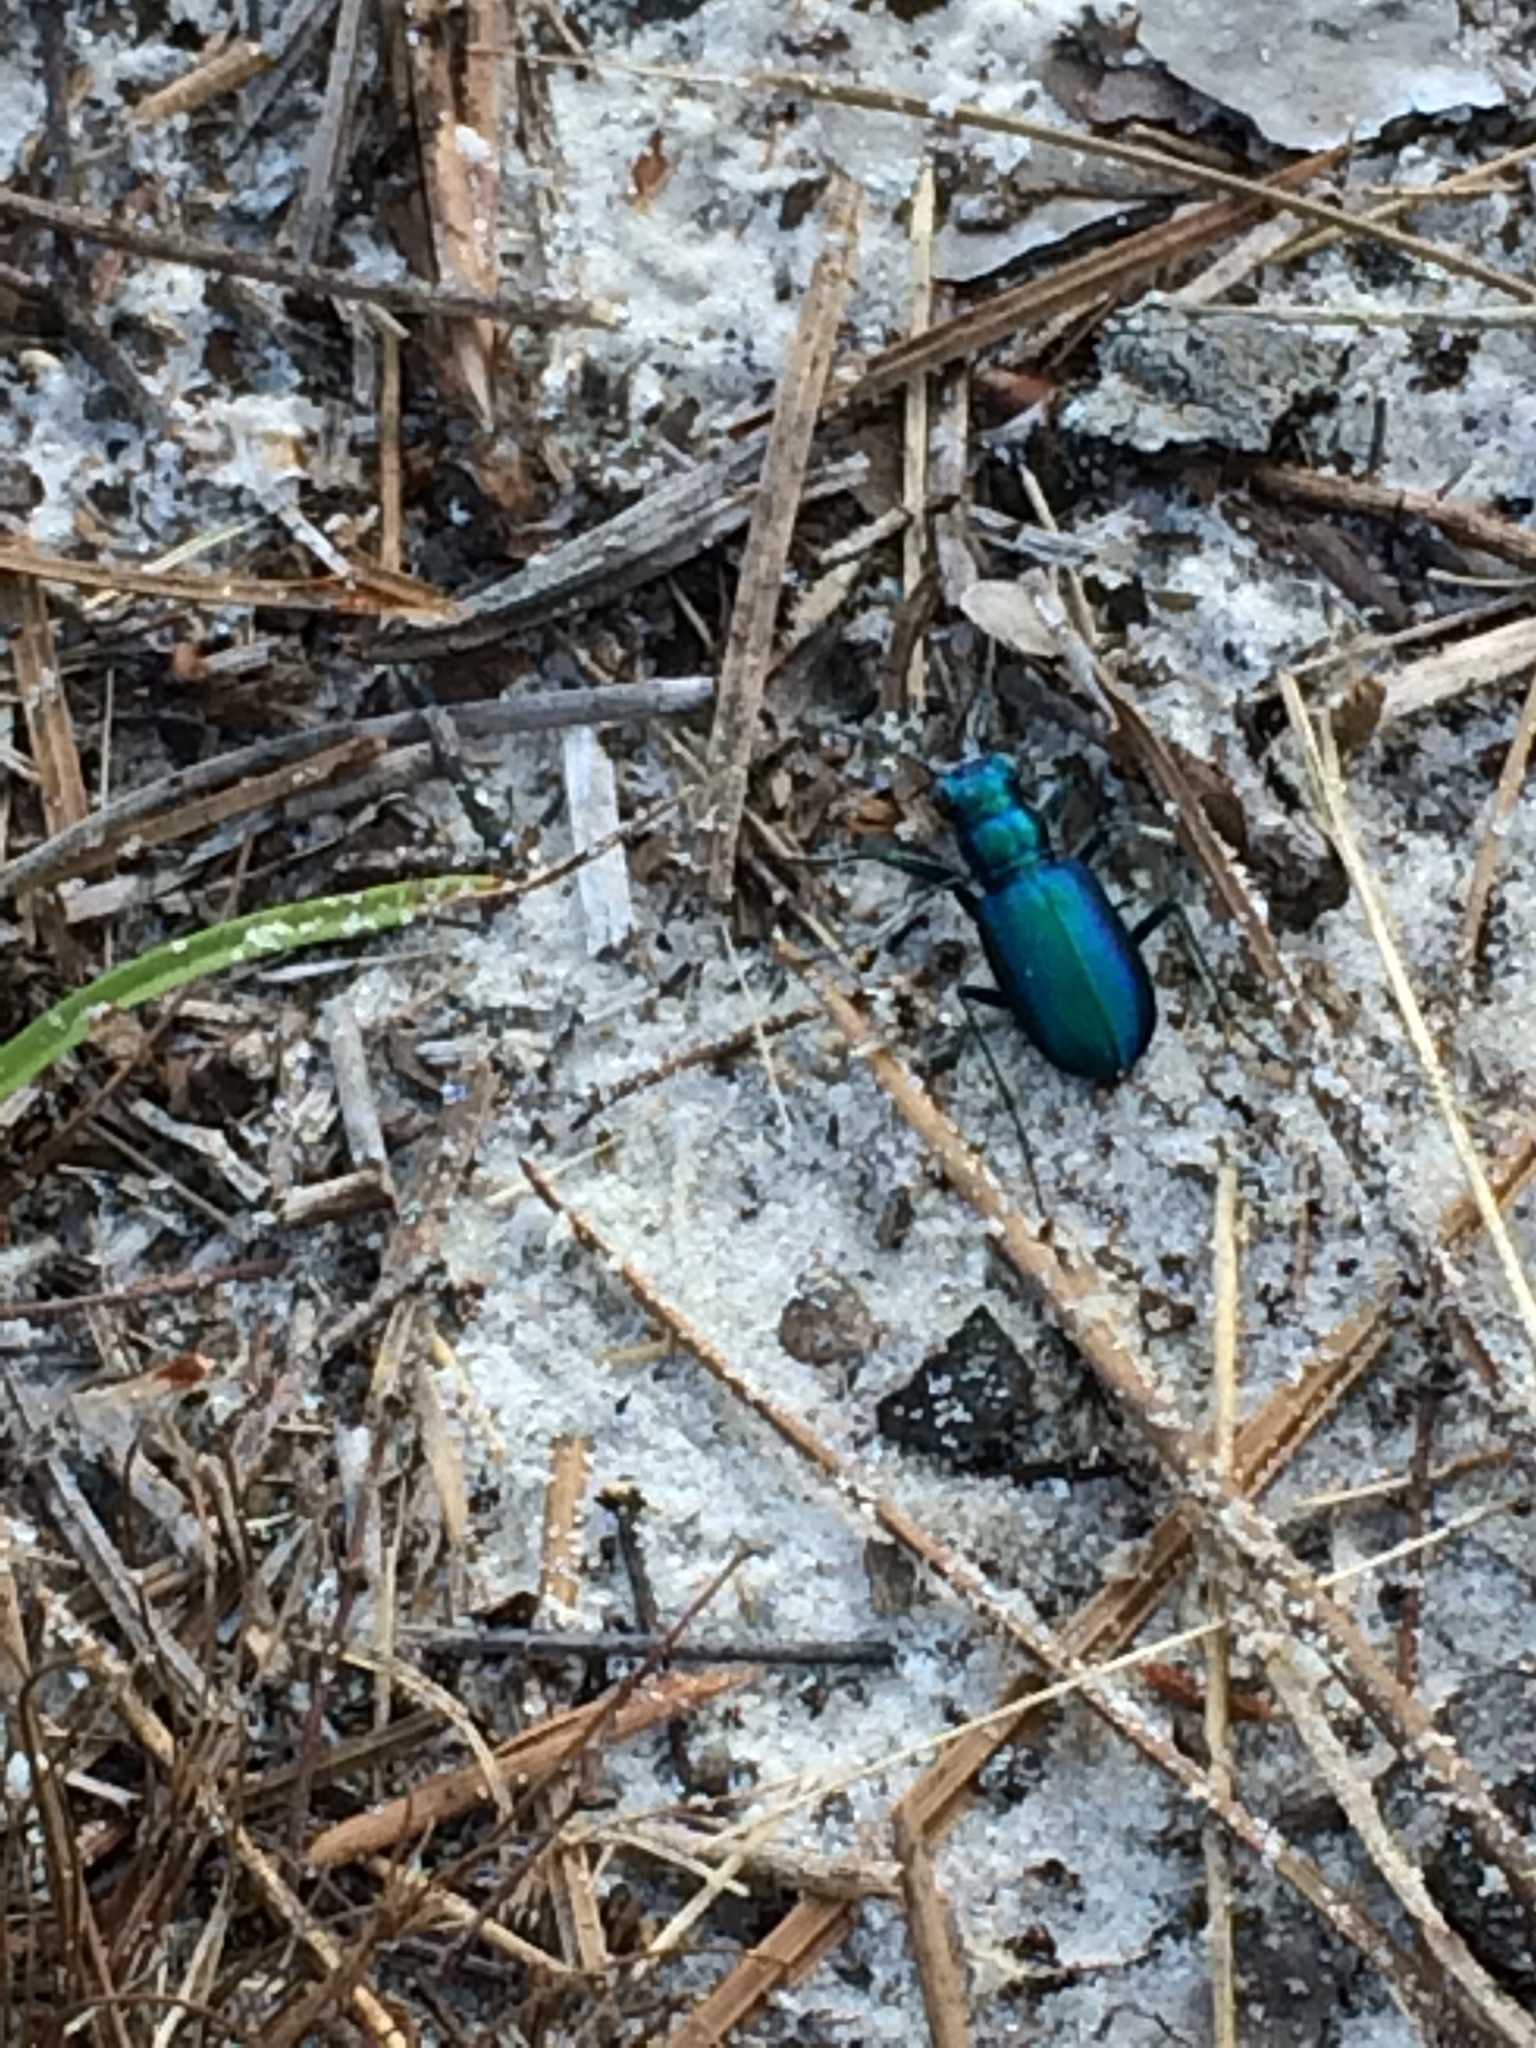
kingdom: Animalia
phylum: Arthropoda
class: Insecta
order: Coleoptera
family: Carabidae
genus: Cicindela
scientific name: Cicindela scutellaris
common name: Festive tiger beetle
